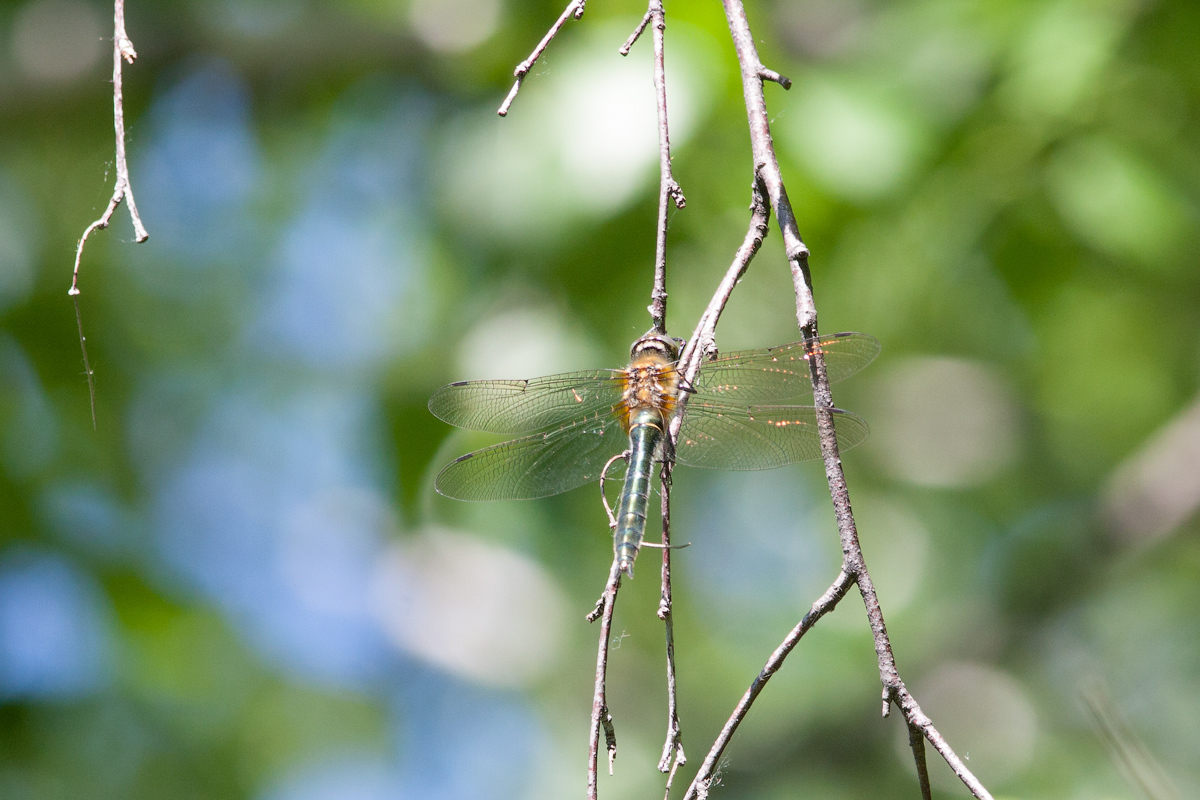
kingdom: Animalia
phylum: Arthropoda
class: Insecta
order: Odonata
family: Corduliidae
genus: Cordulia
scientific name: Cordulia aenea
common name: Downy emerald
